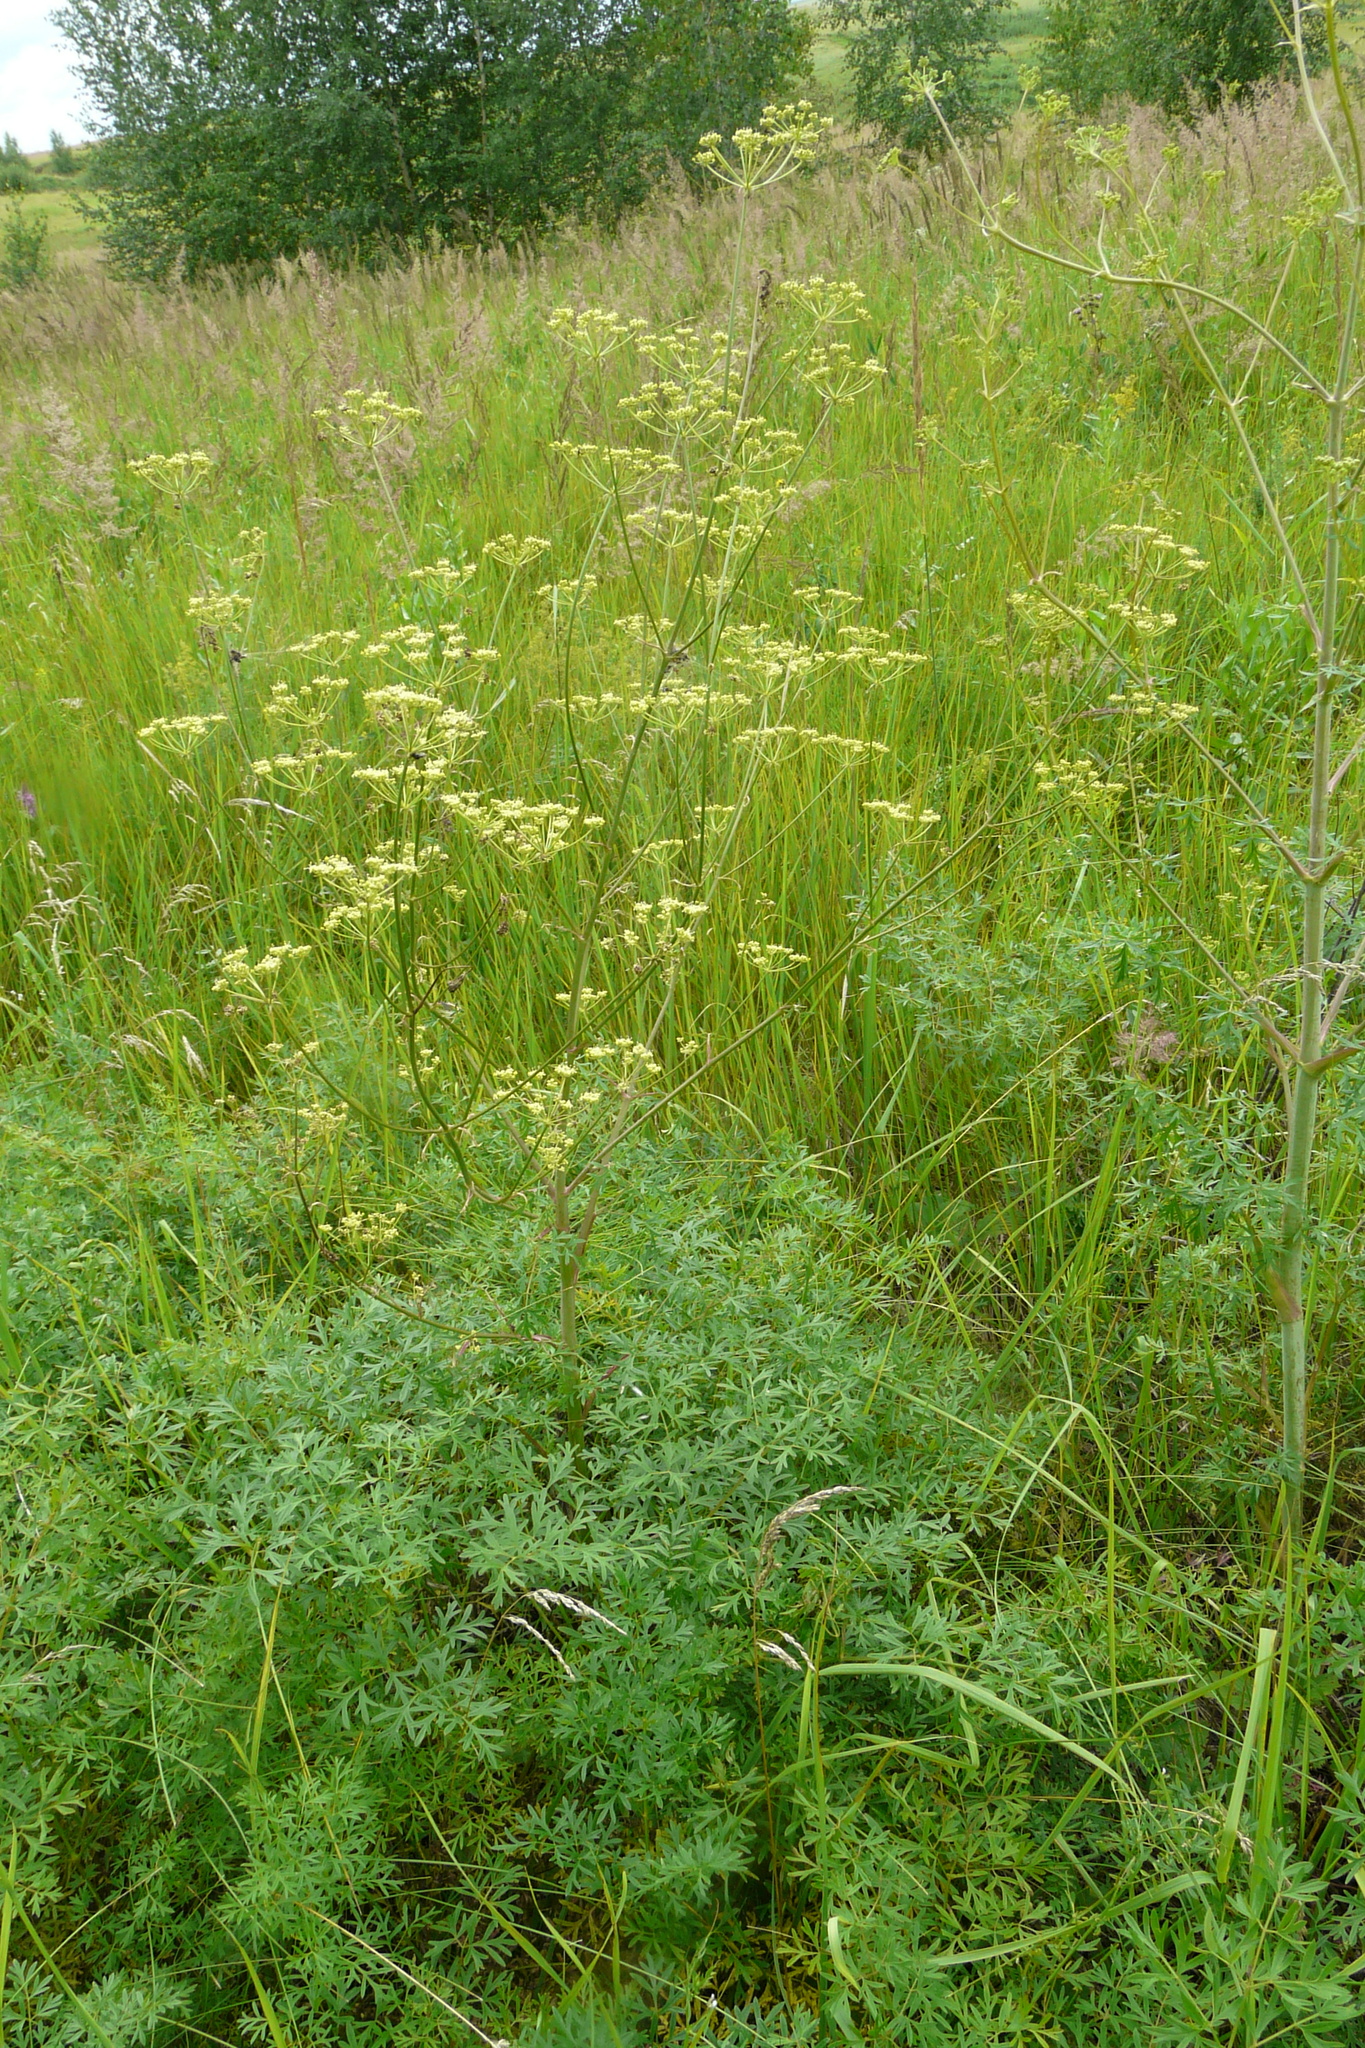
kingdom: Plantae
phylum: Tracheophyta
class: Magnoliopsida
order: Apiales
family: Apiaceae
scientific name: Apiaceae
